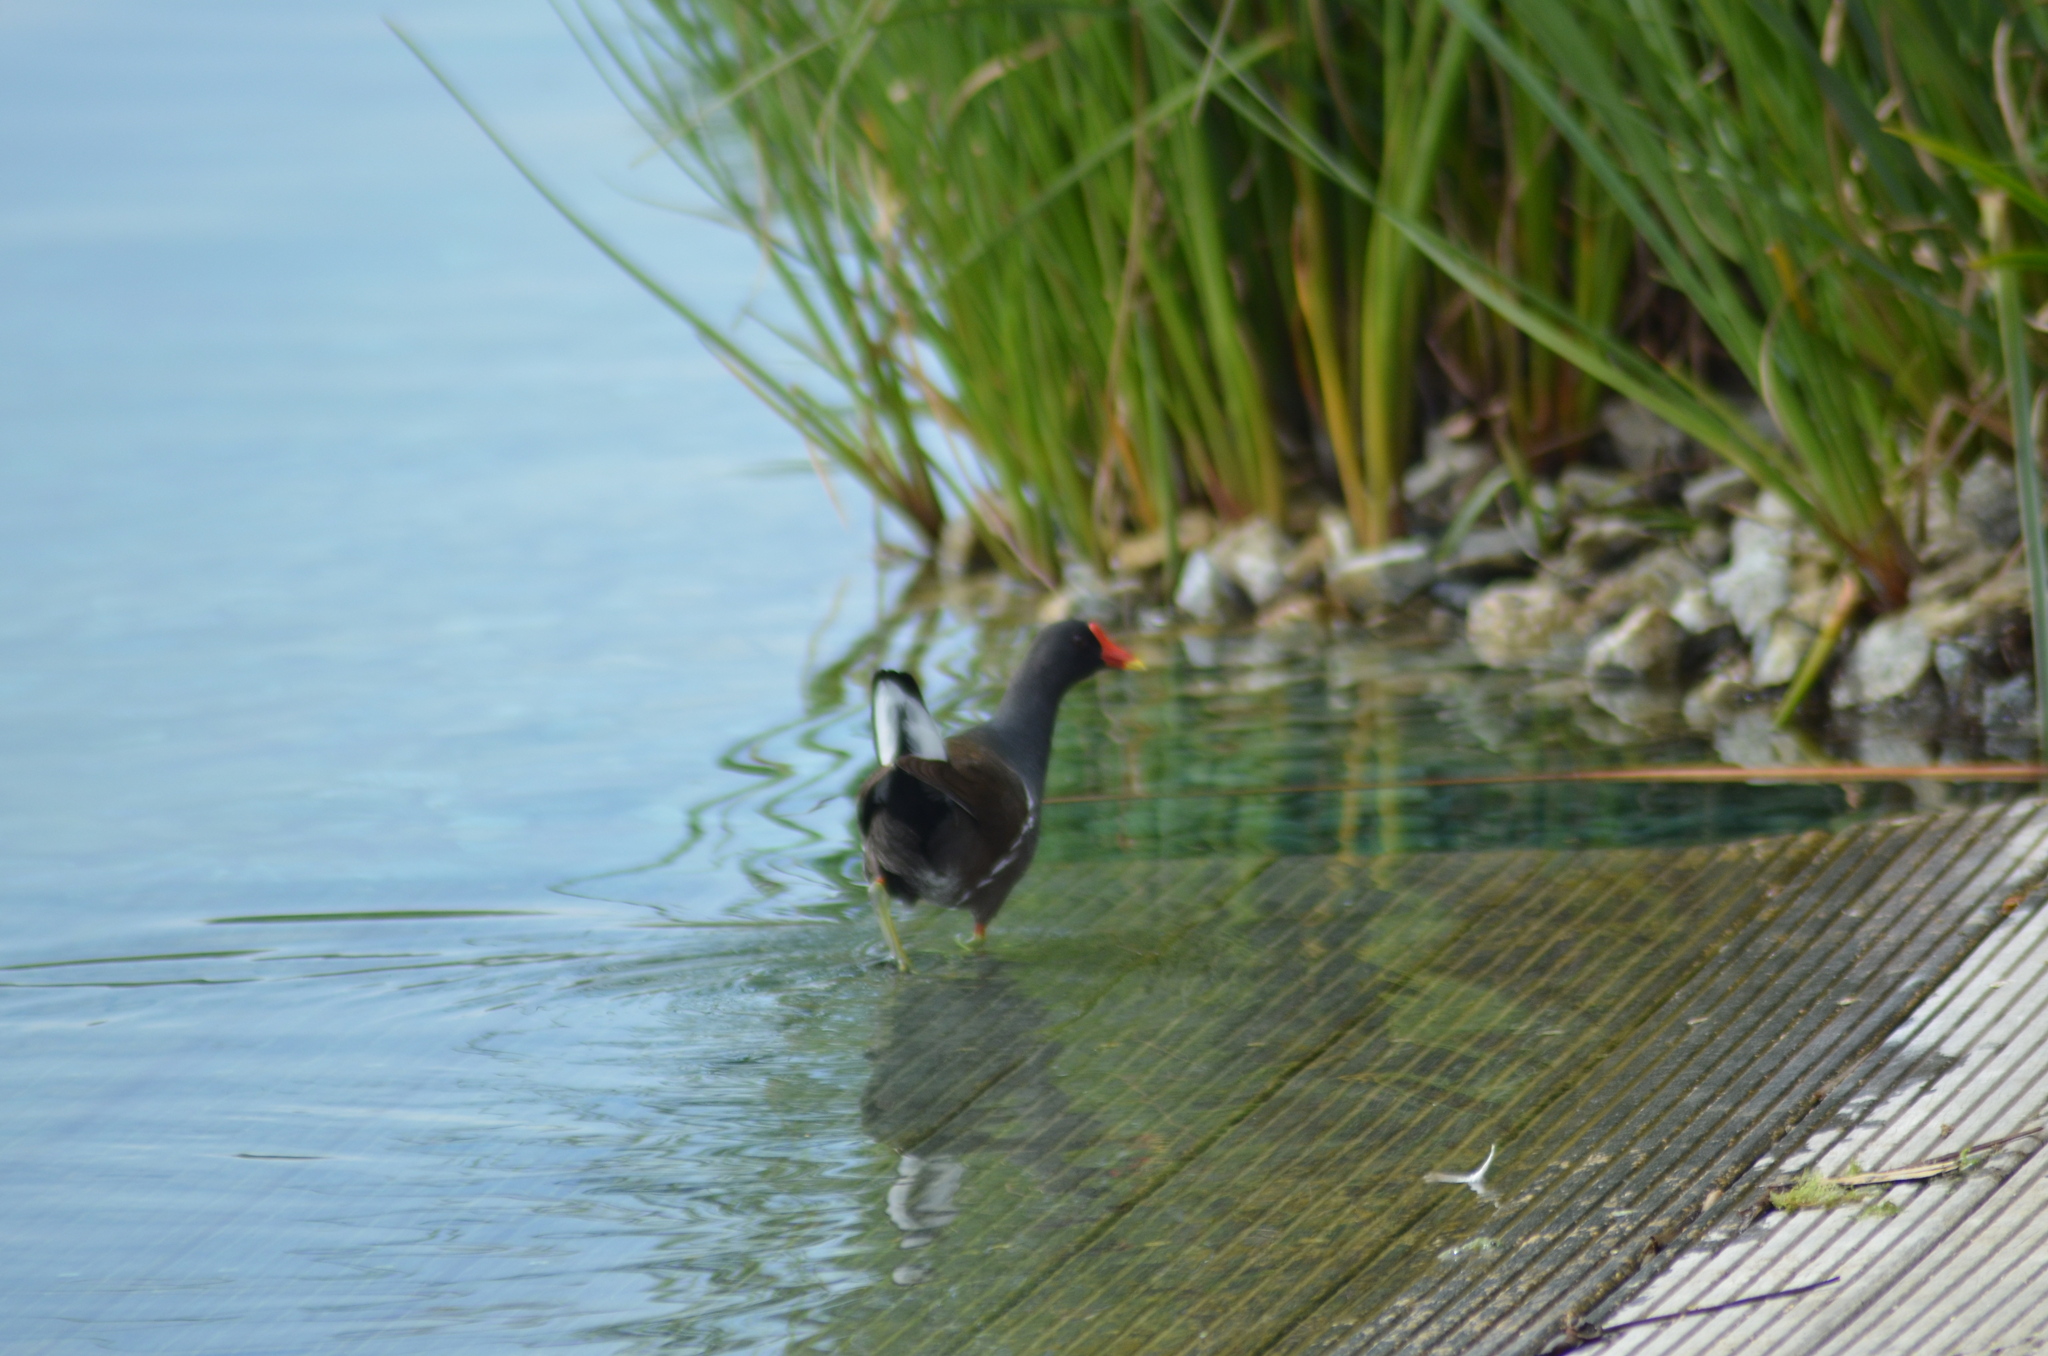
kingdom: Animalia
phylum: Chordata
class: Aves
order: Gruiformes
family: Rallidae
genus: Gallinula
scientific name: Gallinula chloropus
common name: Common moorhen
